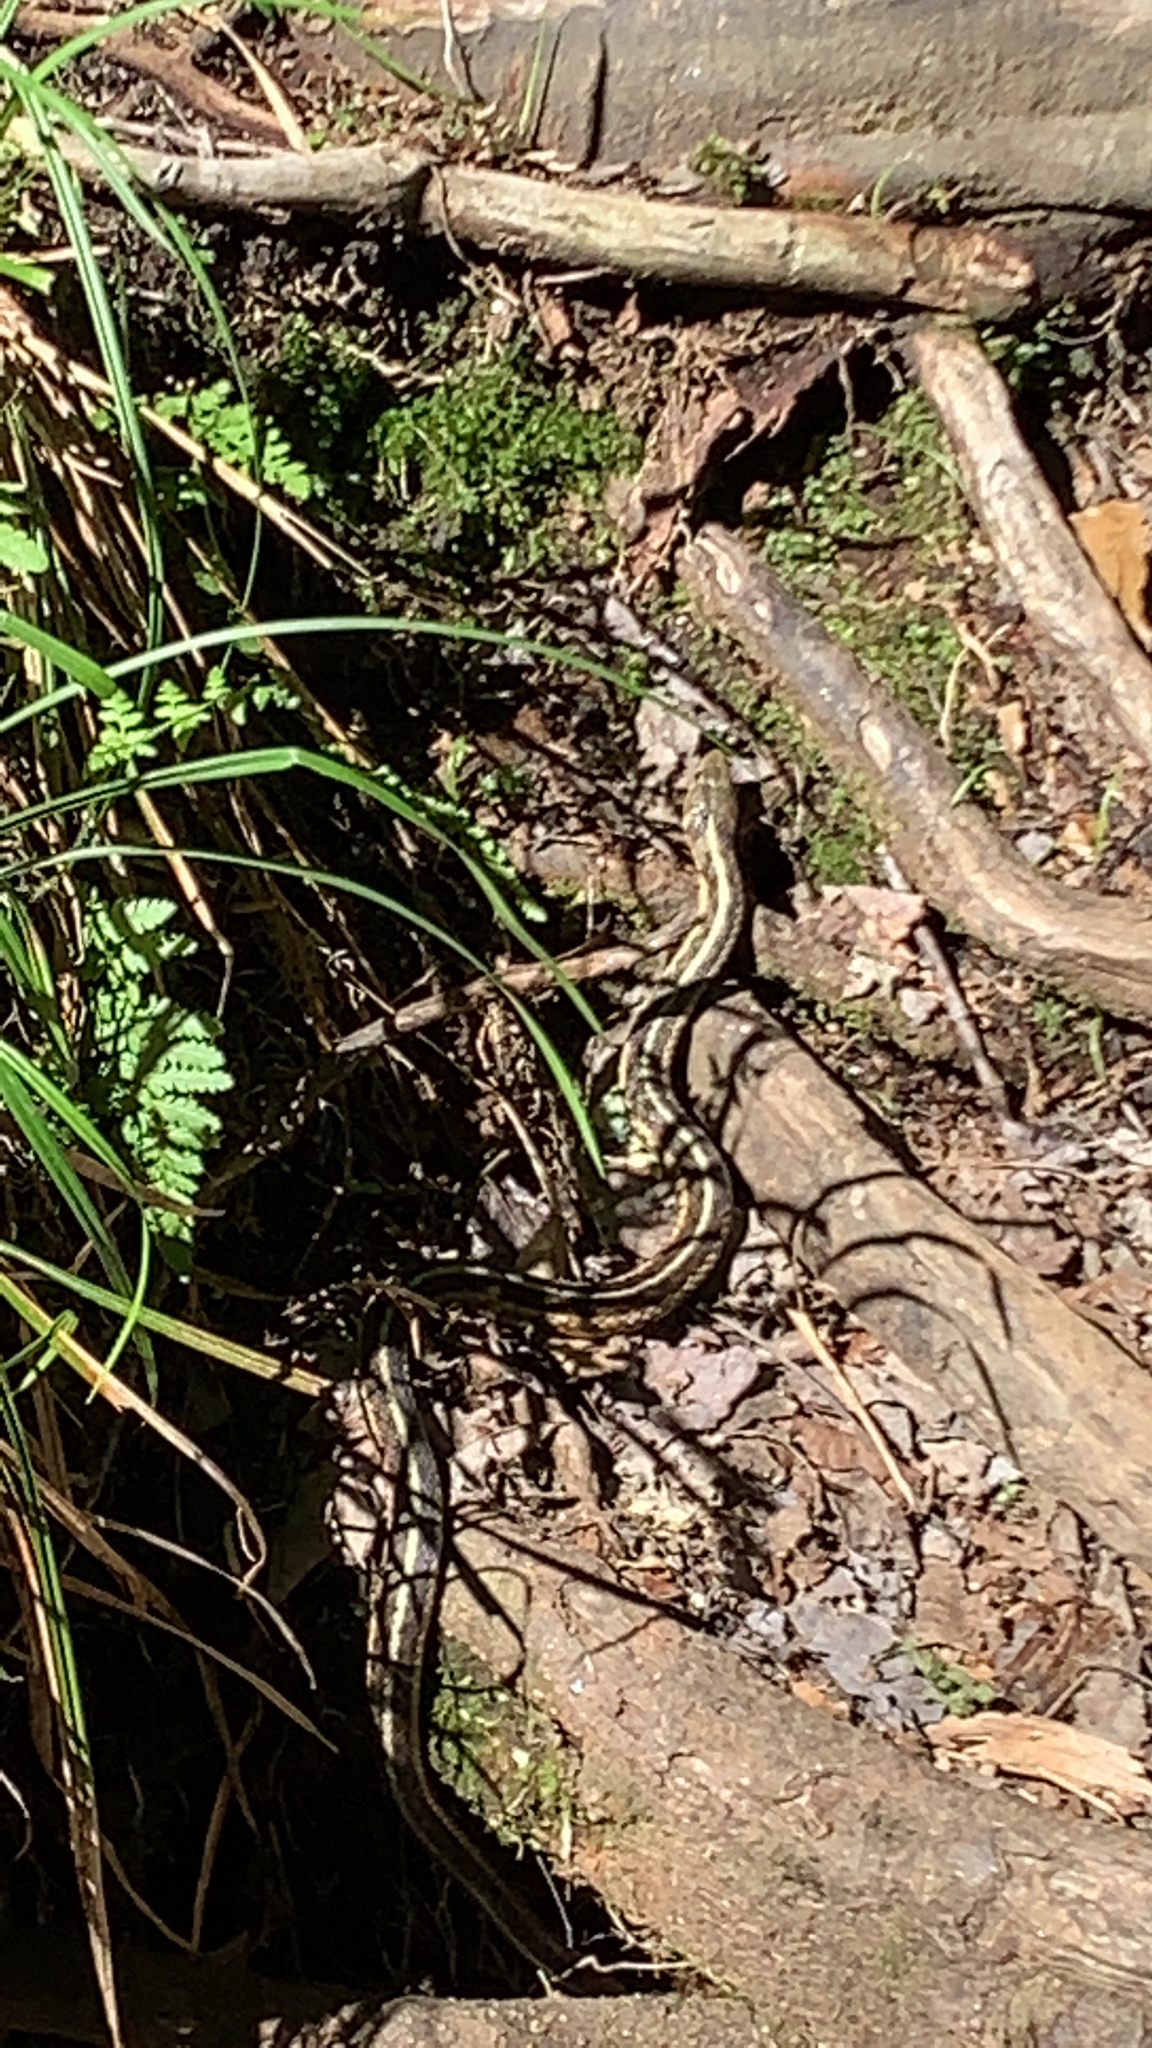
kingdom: Animalia
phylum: Chordata
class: Squamata
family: Colubridae
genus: Thamnophis
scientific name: Thamnophis sirtalis
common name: Common garter snake
